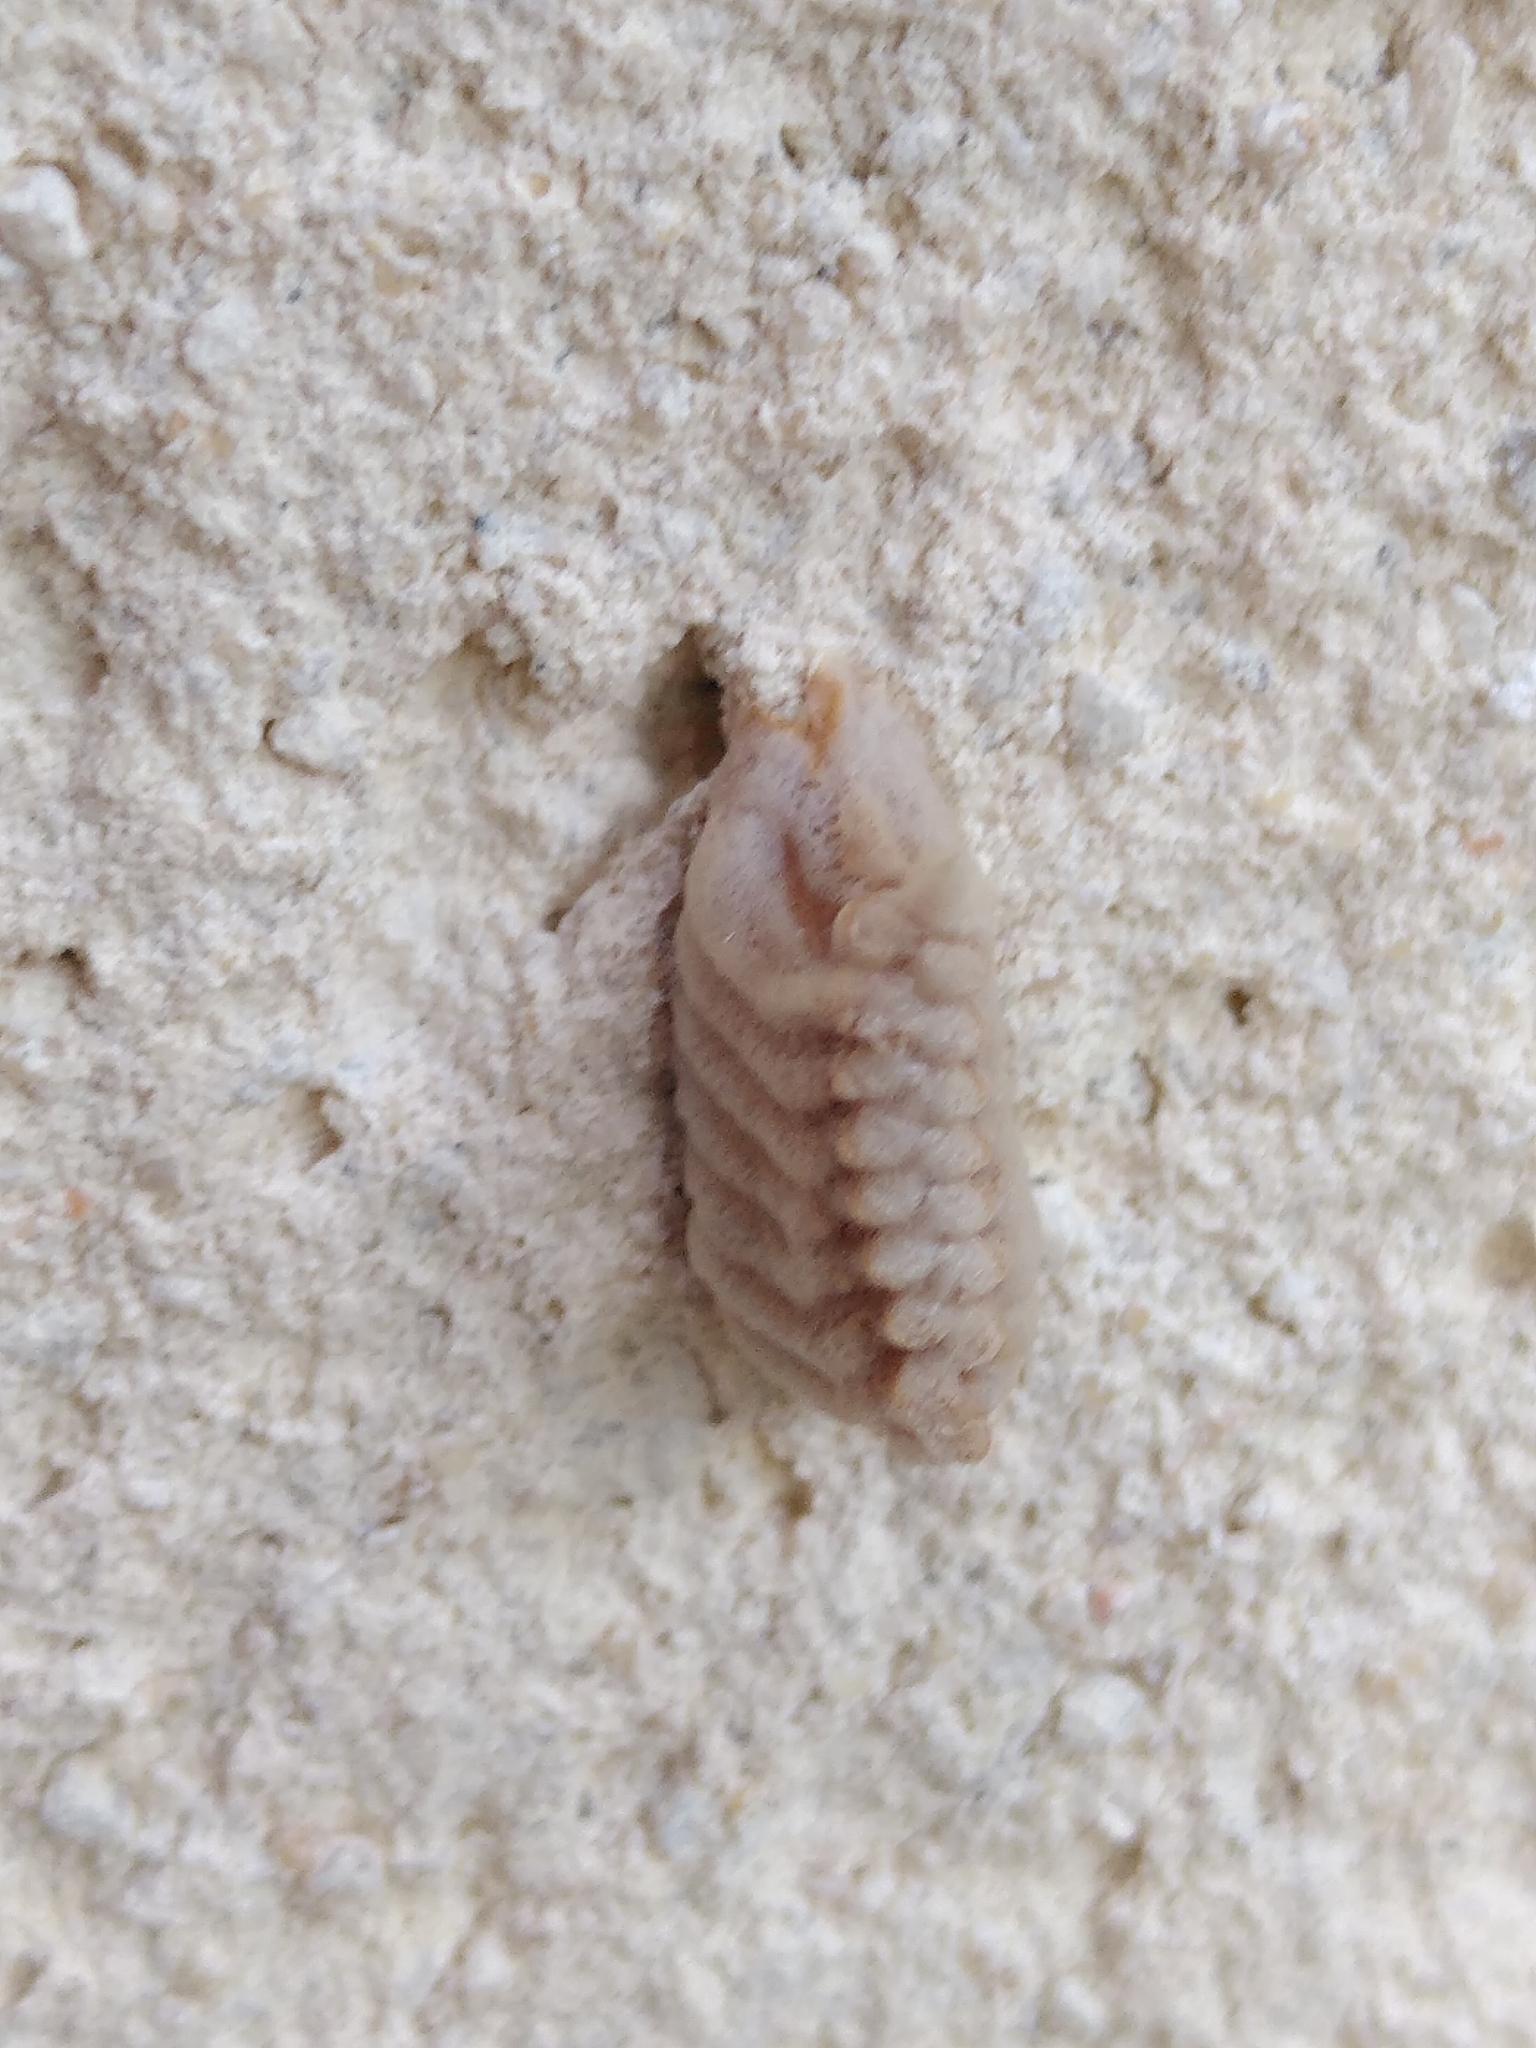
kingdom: Animalia
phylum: Arthropoda
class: Insecta
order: Mantodea
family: Empusidae
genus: Empusa
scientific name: Empusa pennata
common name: Conehead mantis
